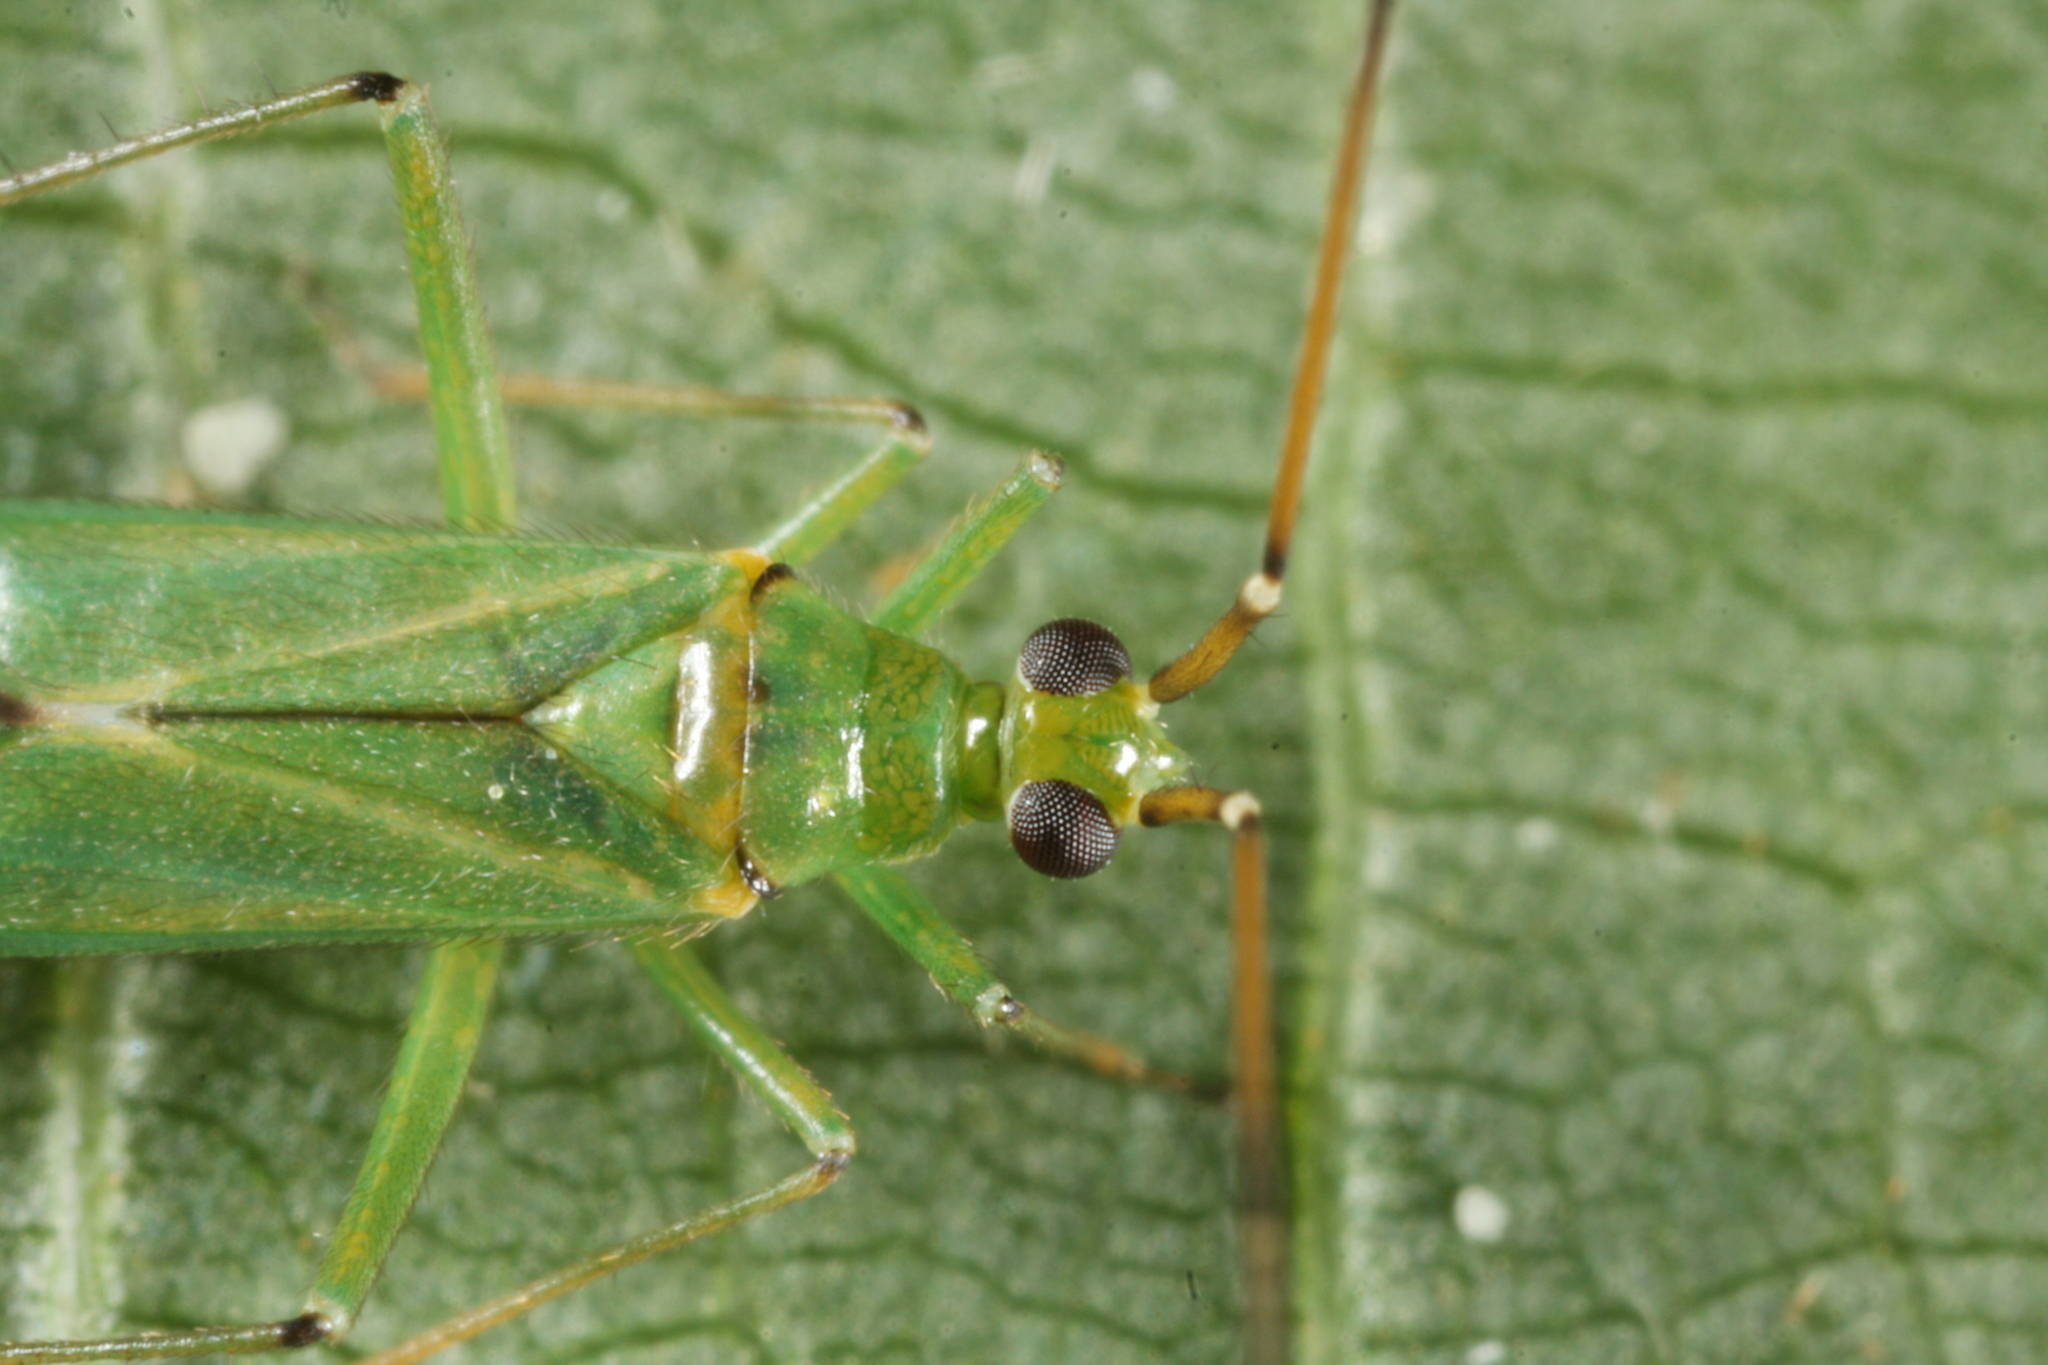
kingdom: Animalia
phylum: Arthropoda
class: Insecta
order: Hemiptera
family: Miridae
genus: Blepharidopterus
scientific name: Blepharidopterus angulatus
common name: Plant bug
